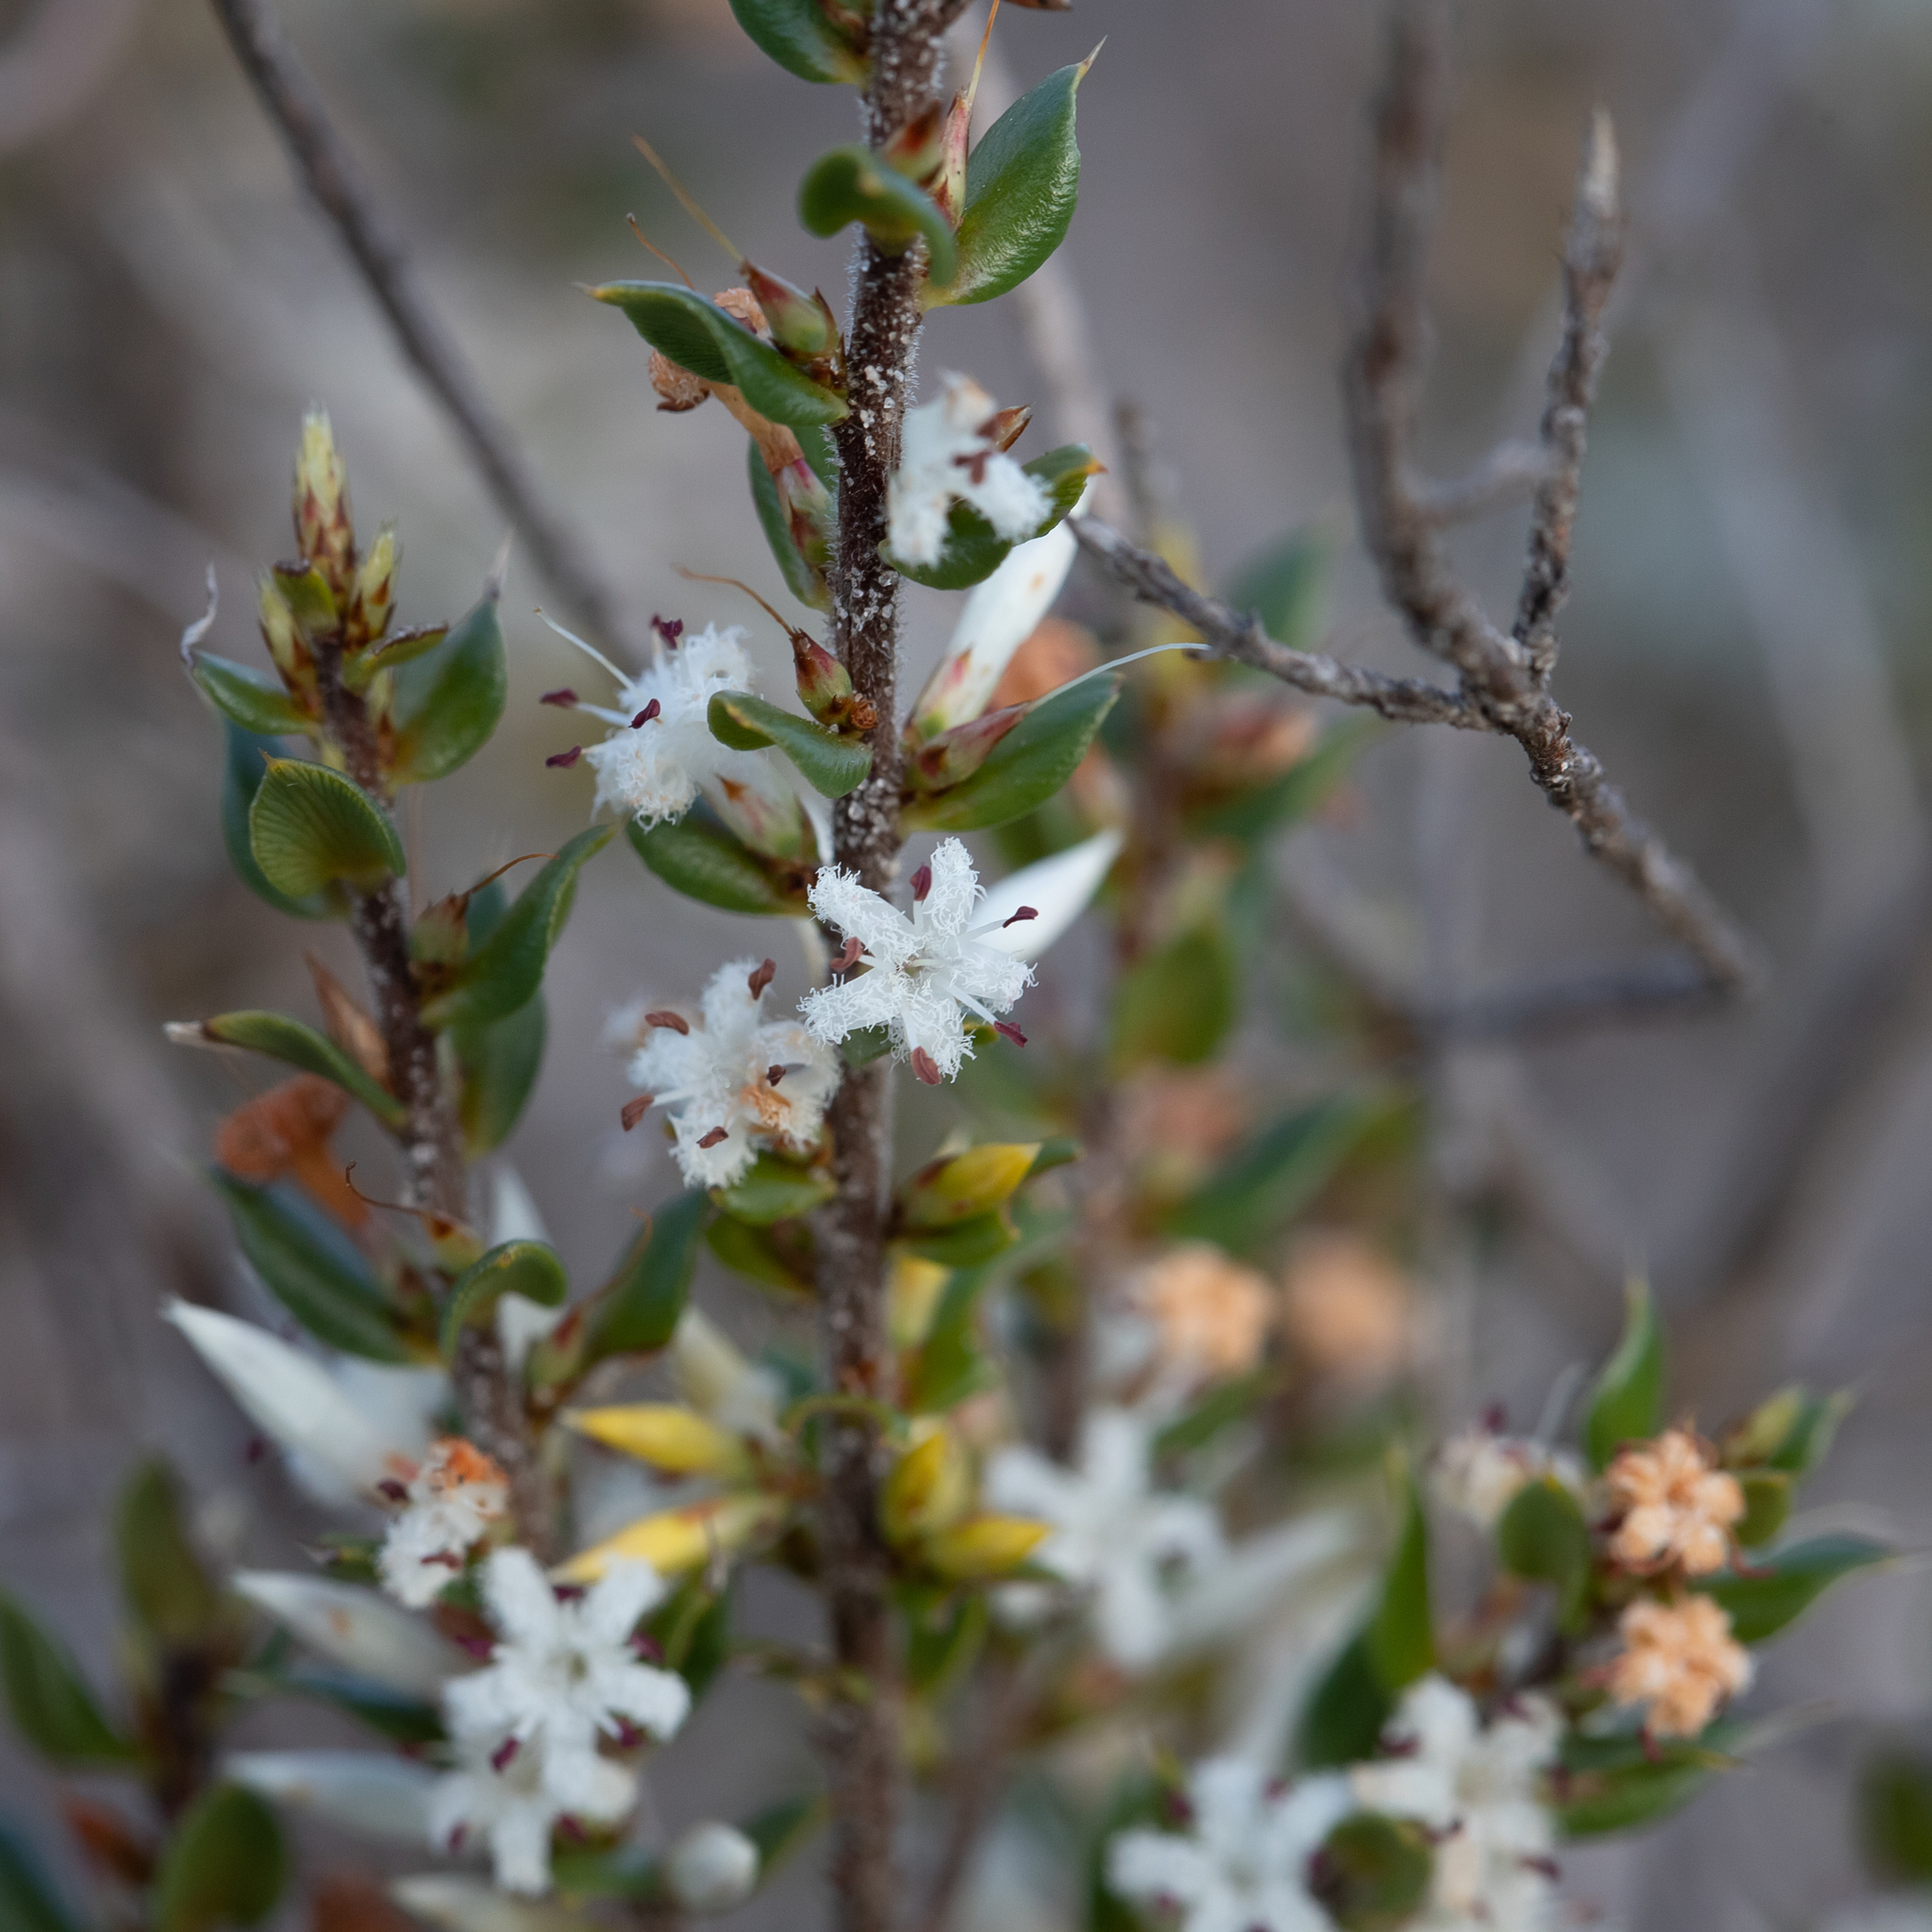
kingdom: Plantae
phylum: Tracheophyta
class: Magnoliopsida
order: Ericales
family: Ericaceae
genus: Styphelia
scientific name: Styphelia exarrhena
